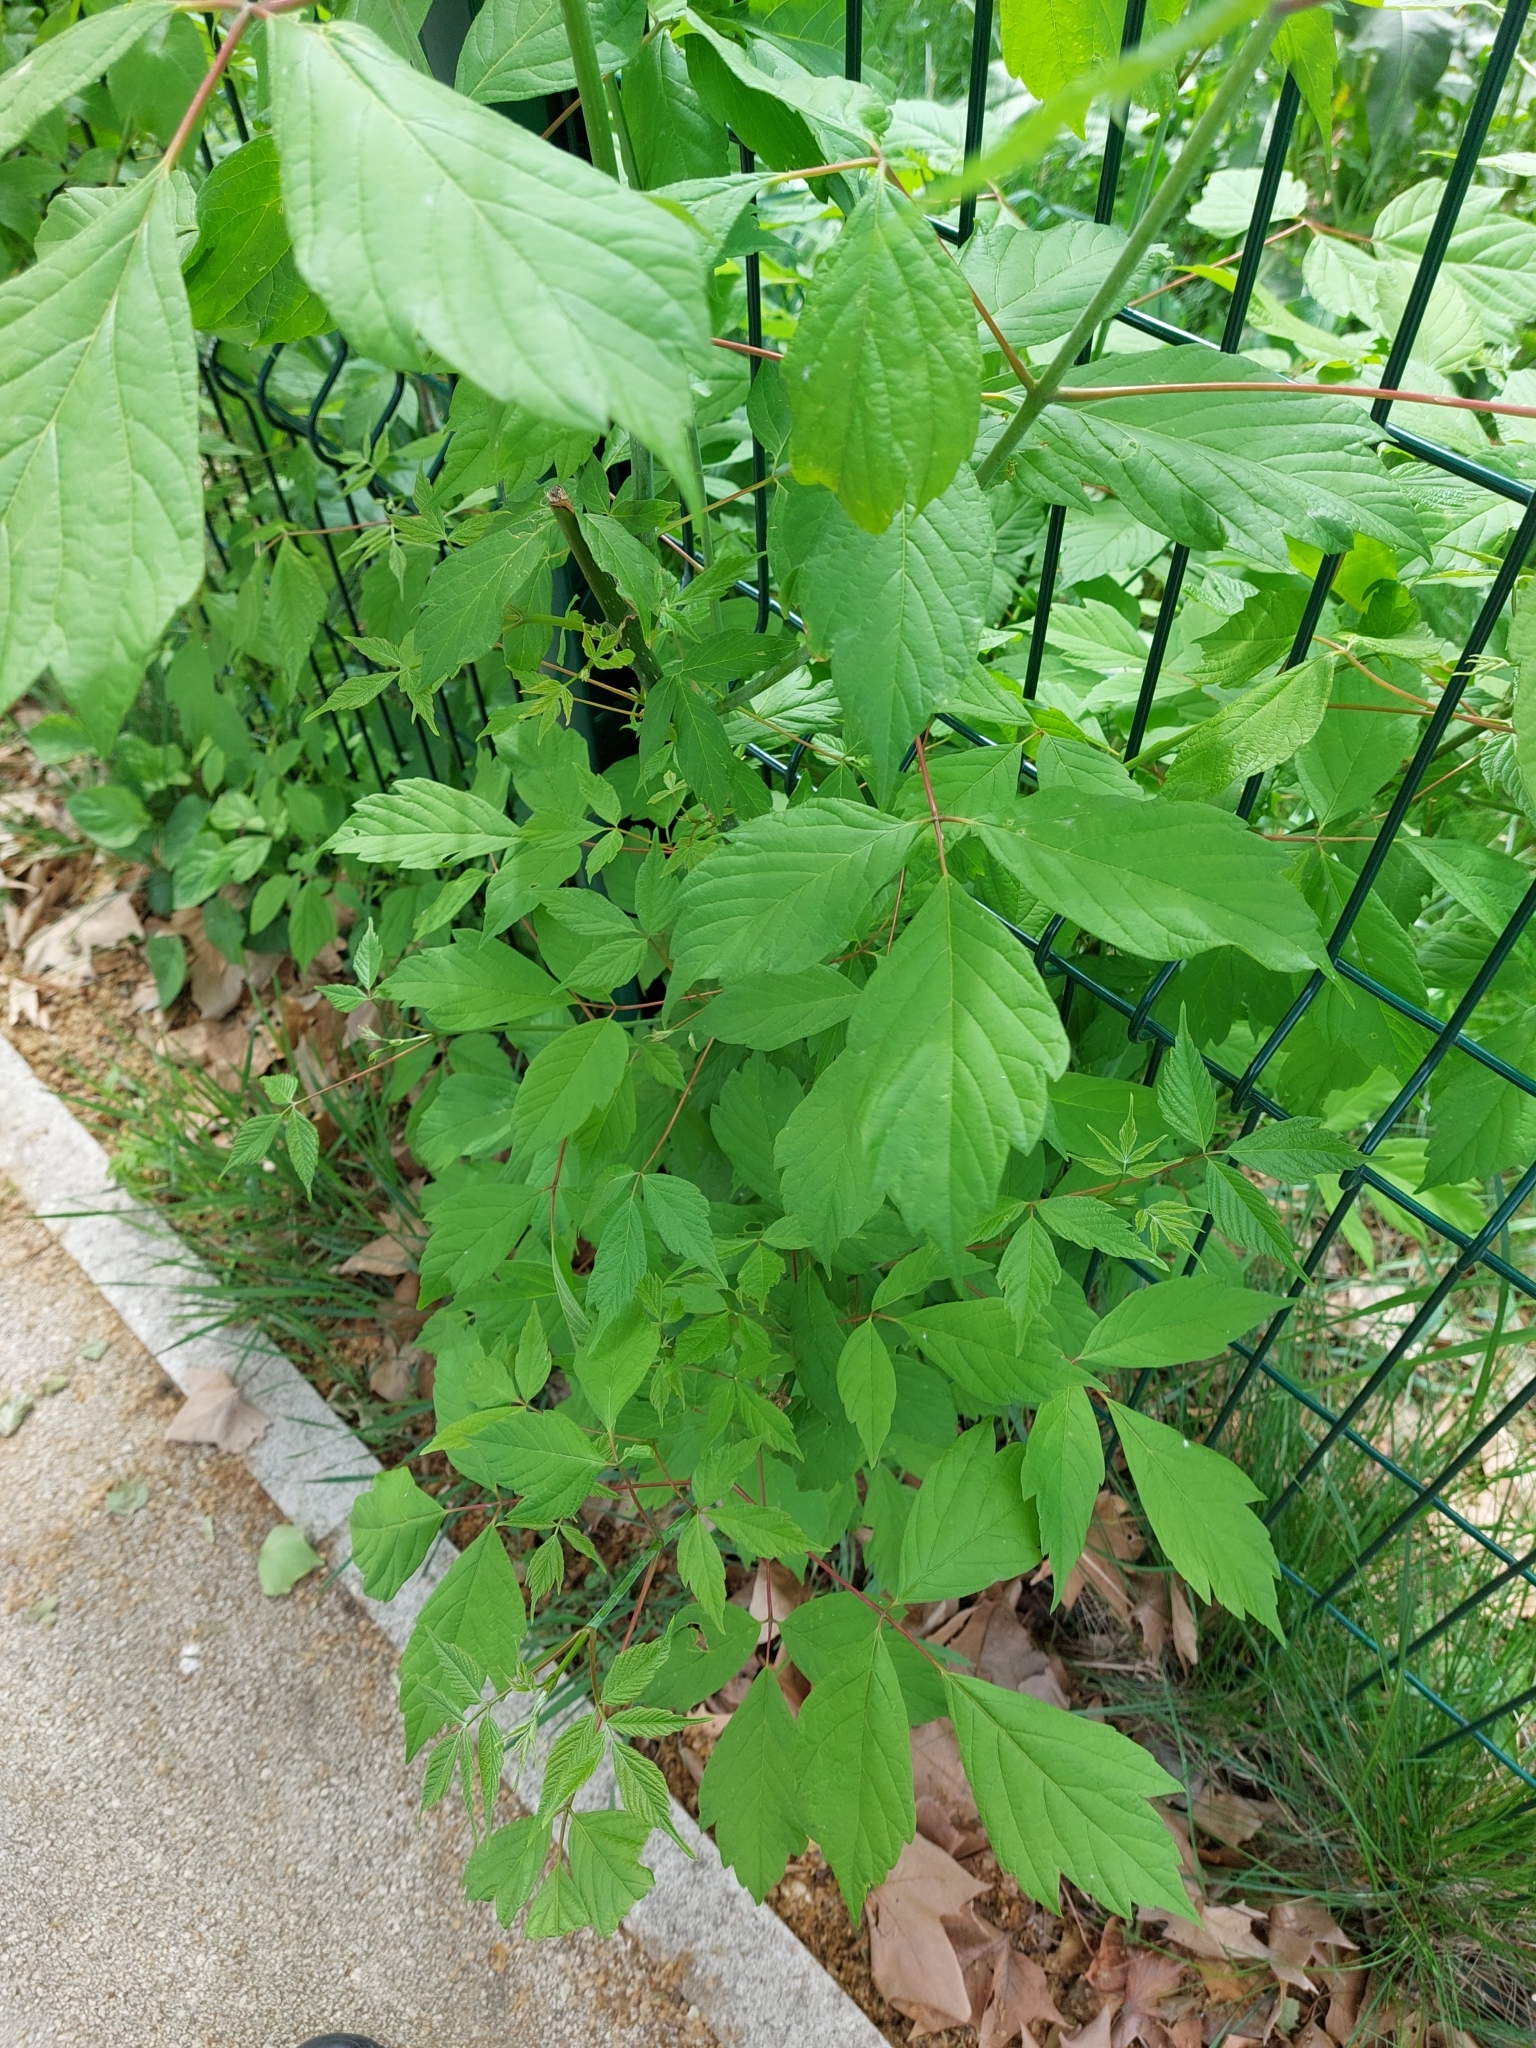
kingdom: Plantae
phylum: Tracheophyta
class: Magnoliopsida
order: Sapindales
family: Sapindaceae
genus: Acer
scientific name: Acer negundo
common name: Ashleaf maple
